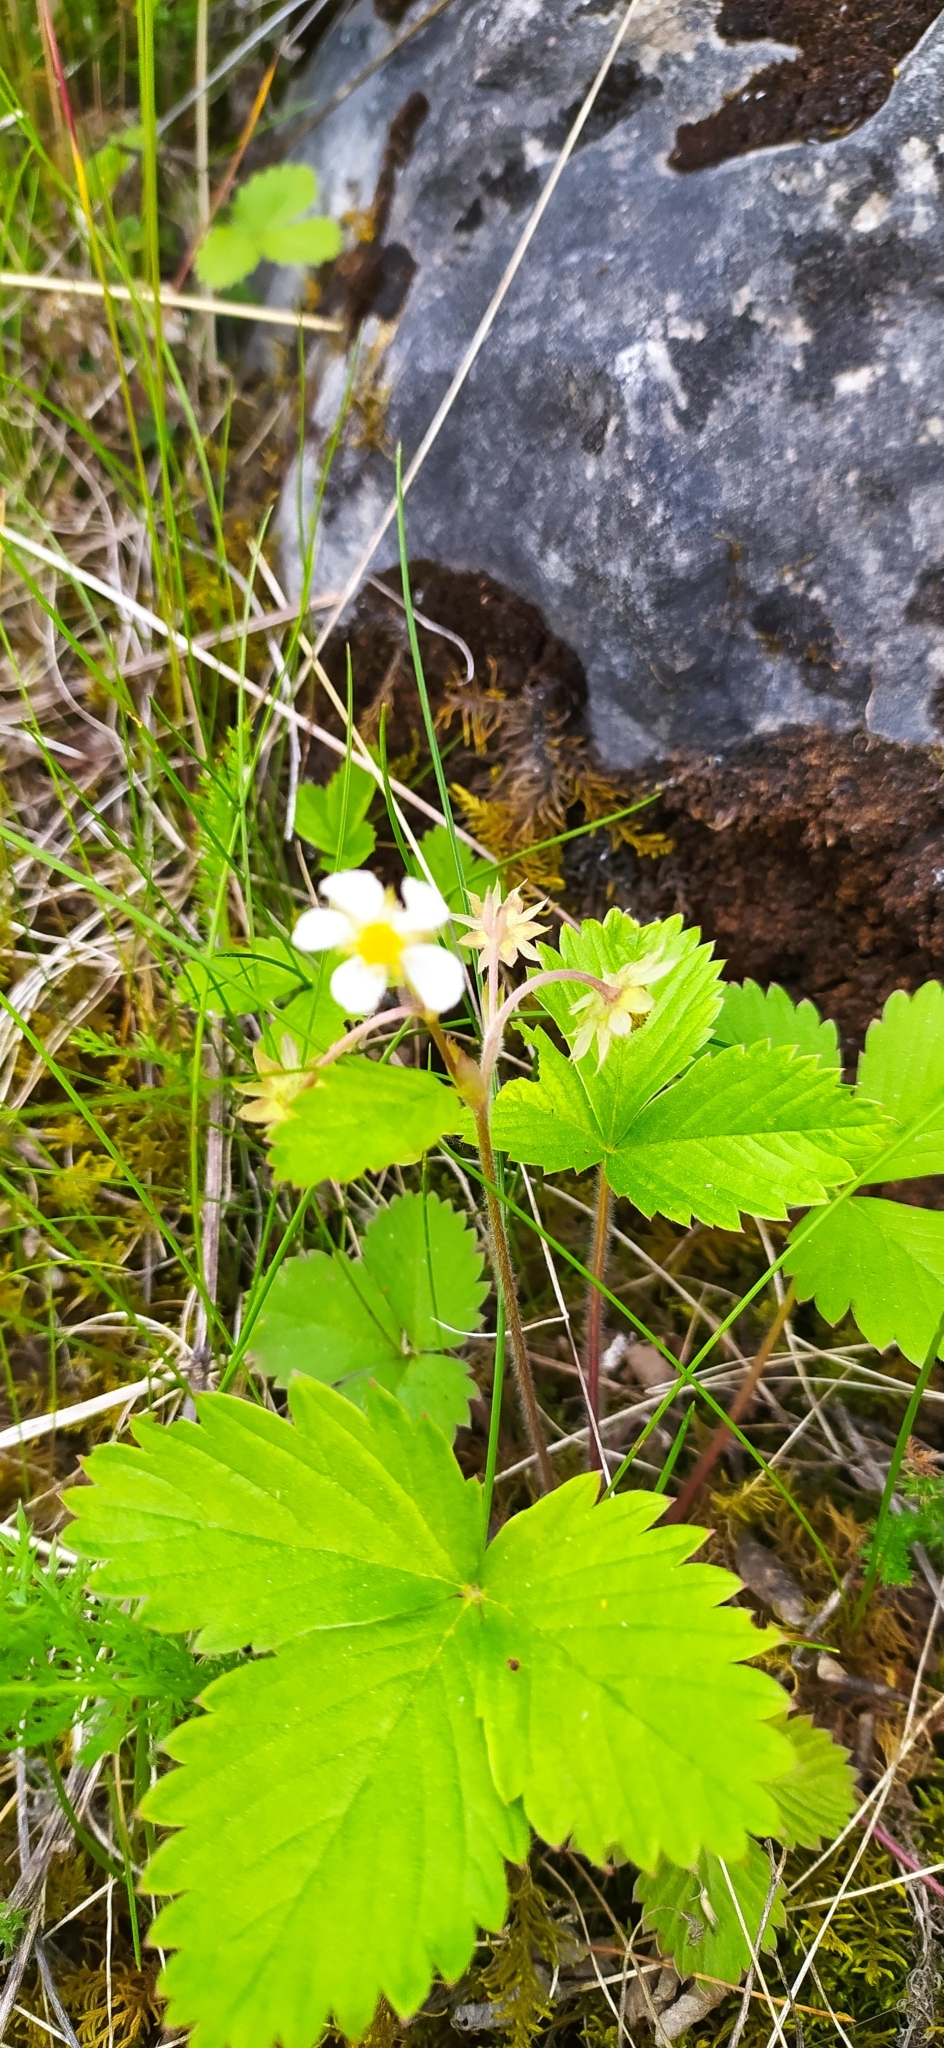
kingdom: Plantae
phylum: Tracheophyta
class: Magnoliopsida
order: Rosales
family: Rosaceae
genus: Fragaria
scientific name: Fragaria vesca
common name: Wild strawberry
